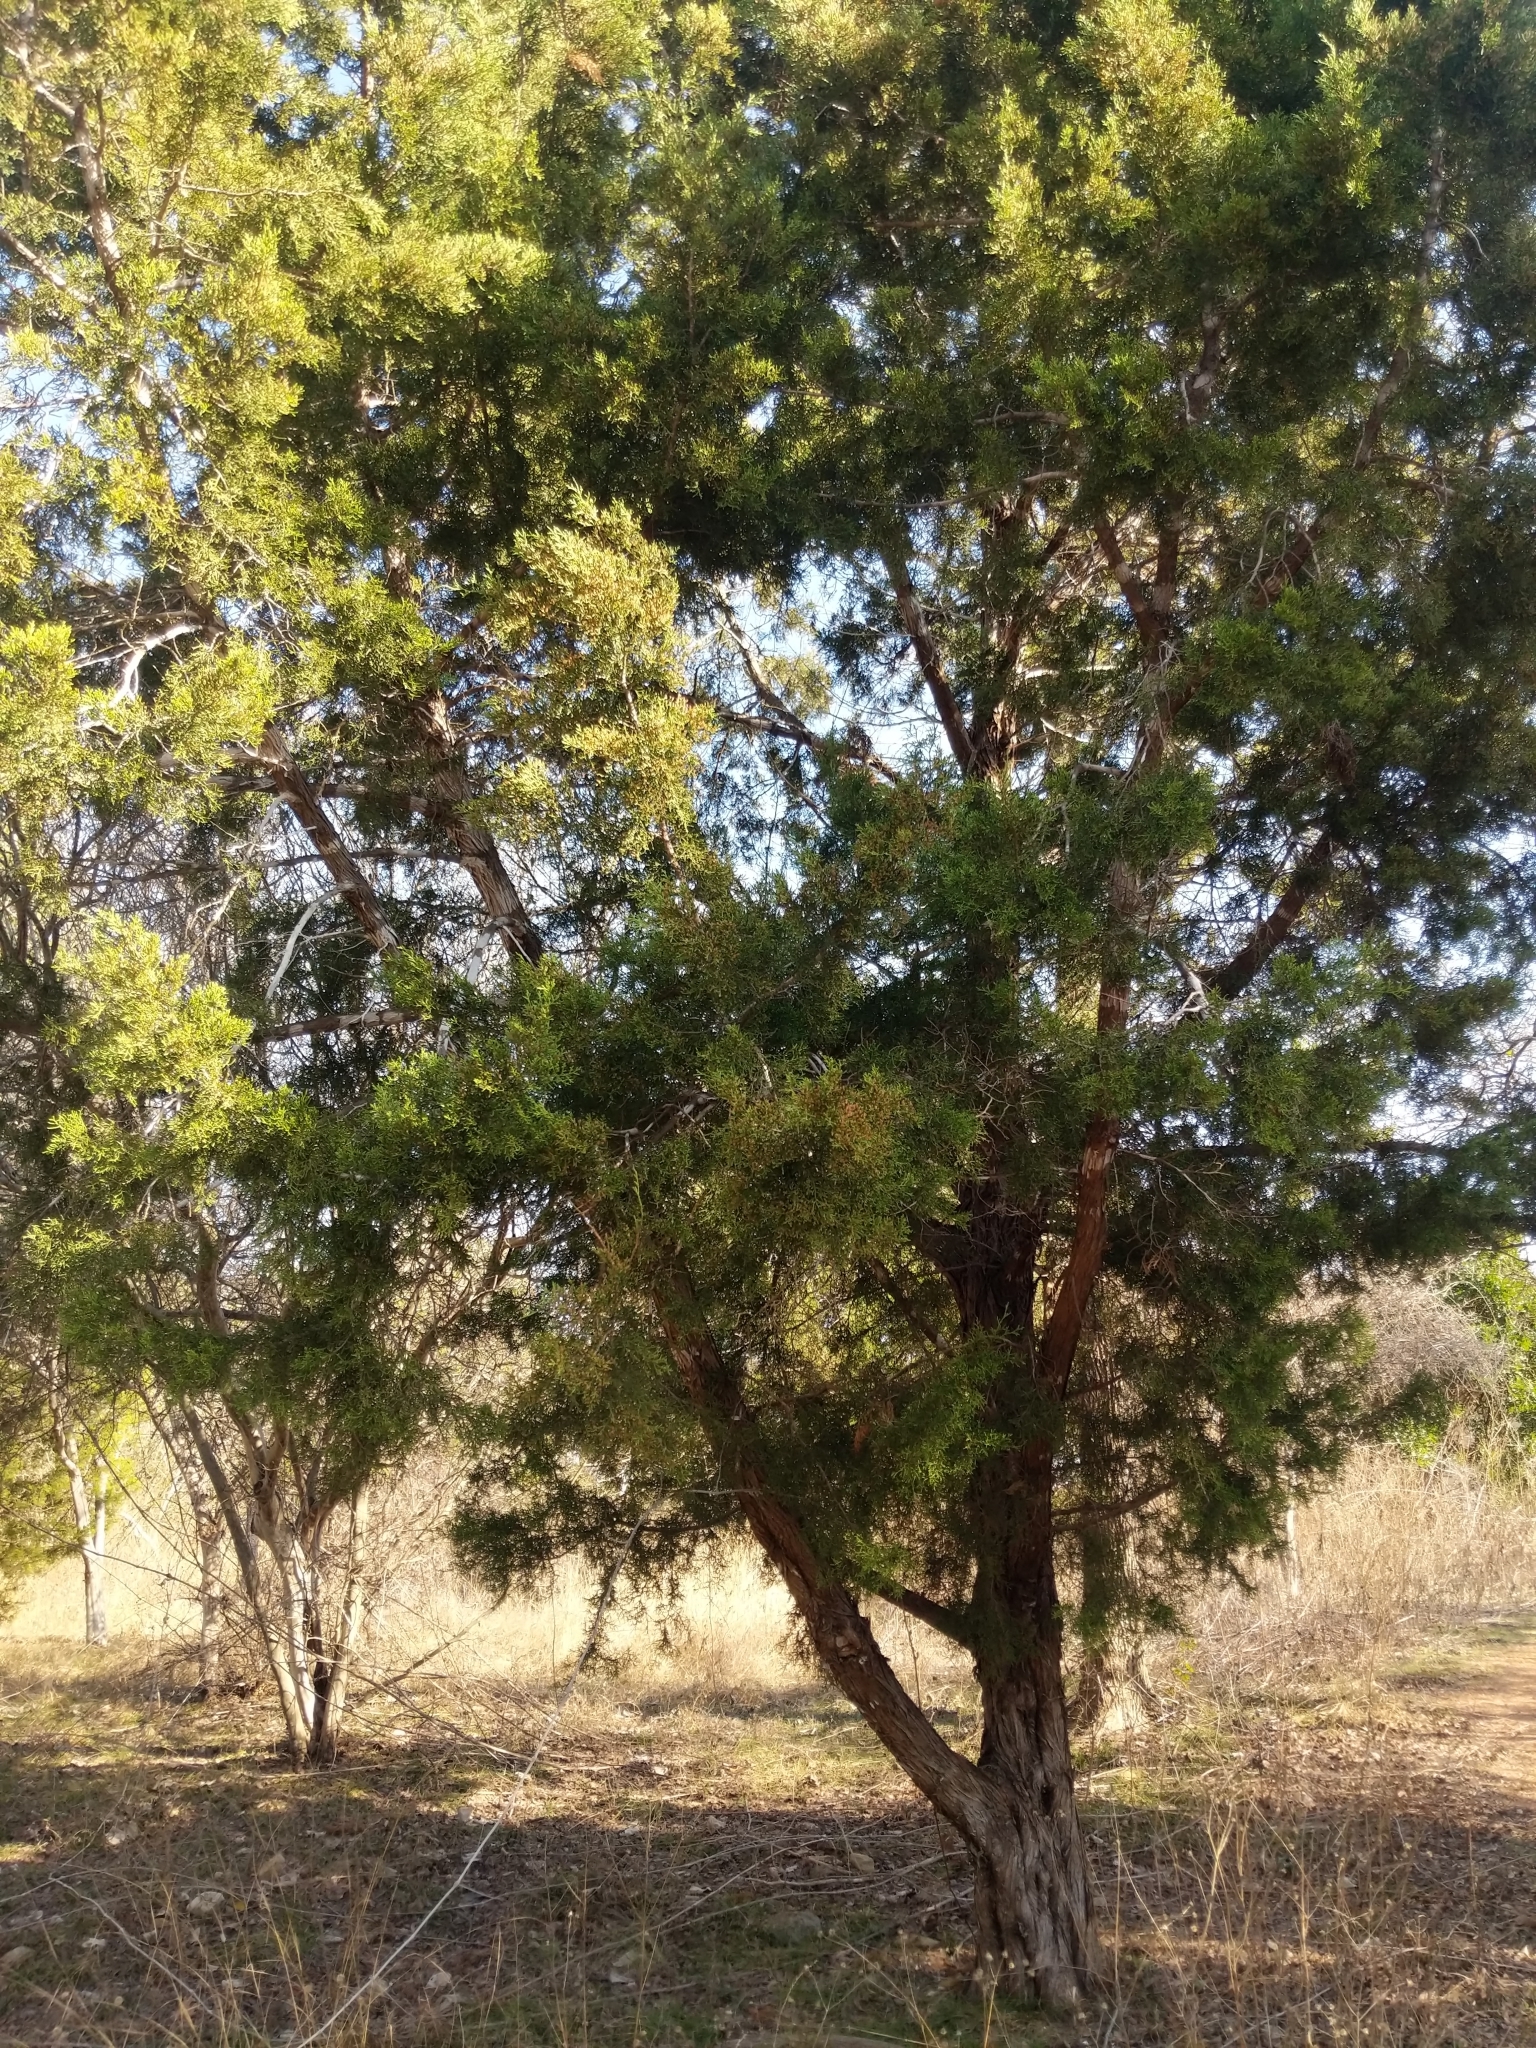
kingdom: Plantae
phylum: Tracheophyta
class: Pinopsida
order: Pinales
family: Cupressaceae
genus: Juniperus
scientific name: Juniperus ashei
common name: Mexican juniper
